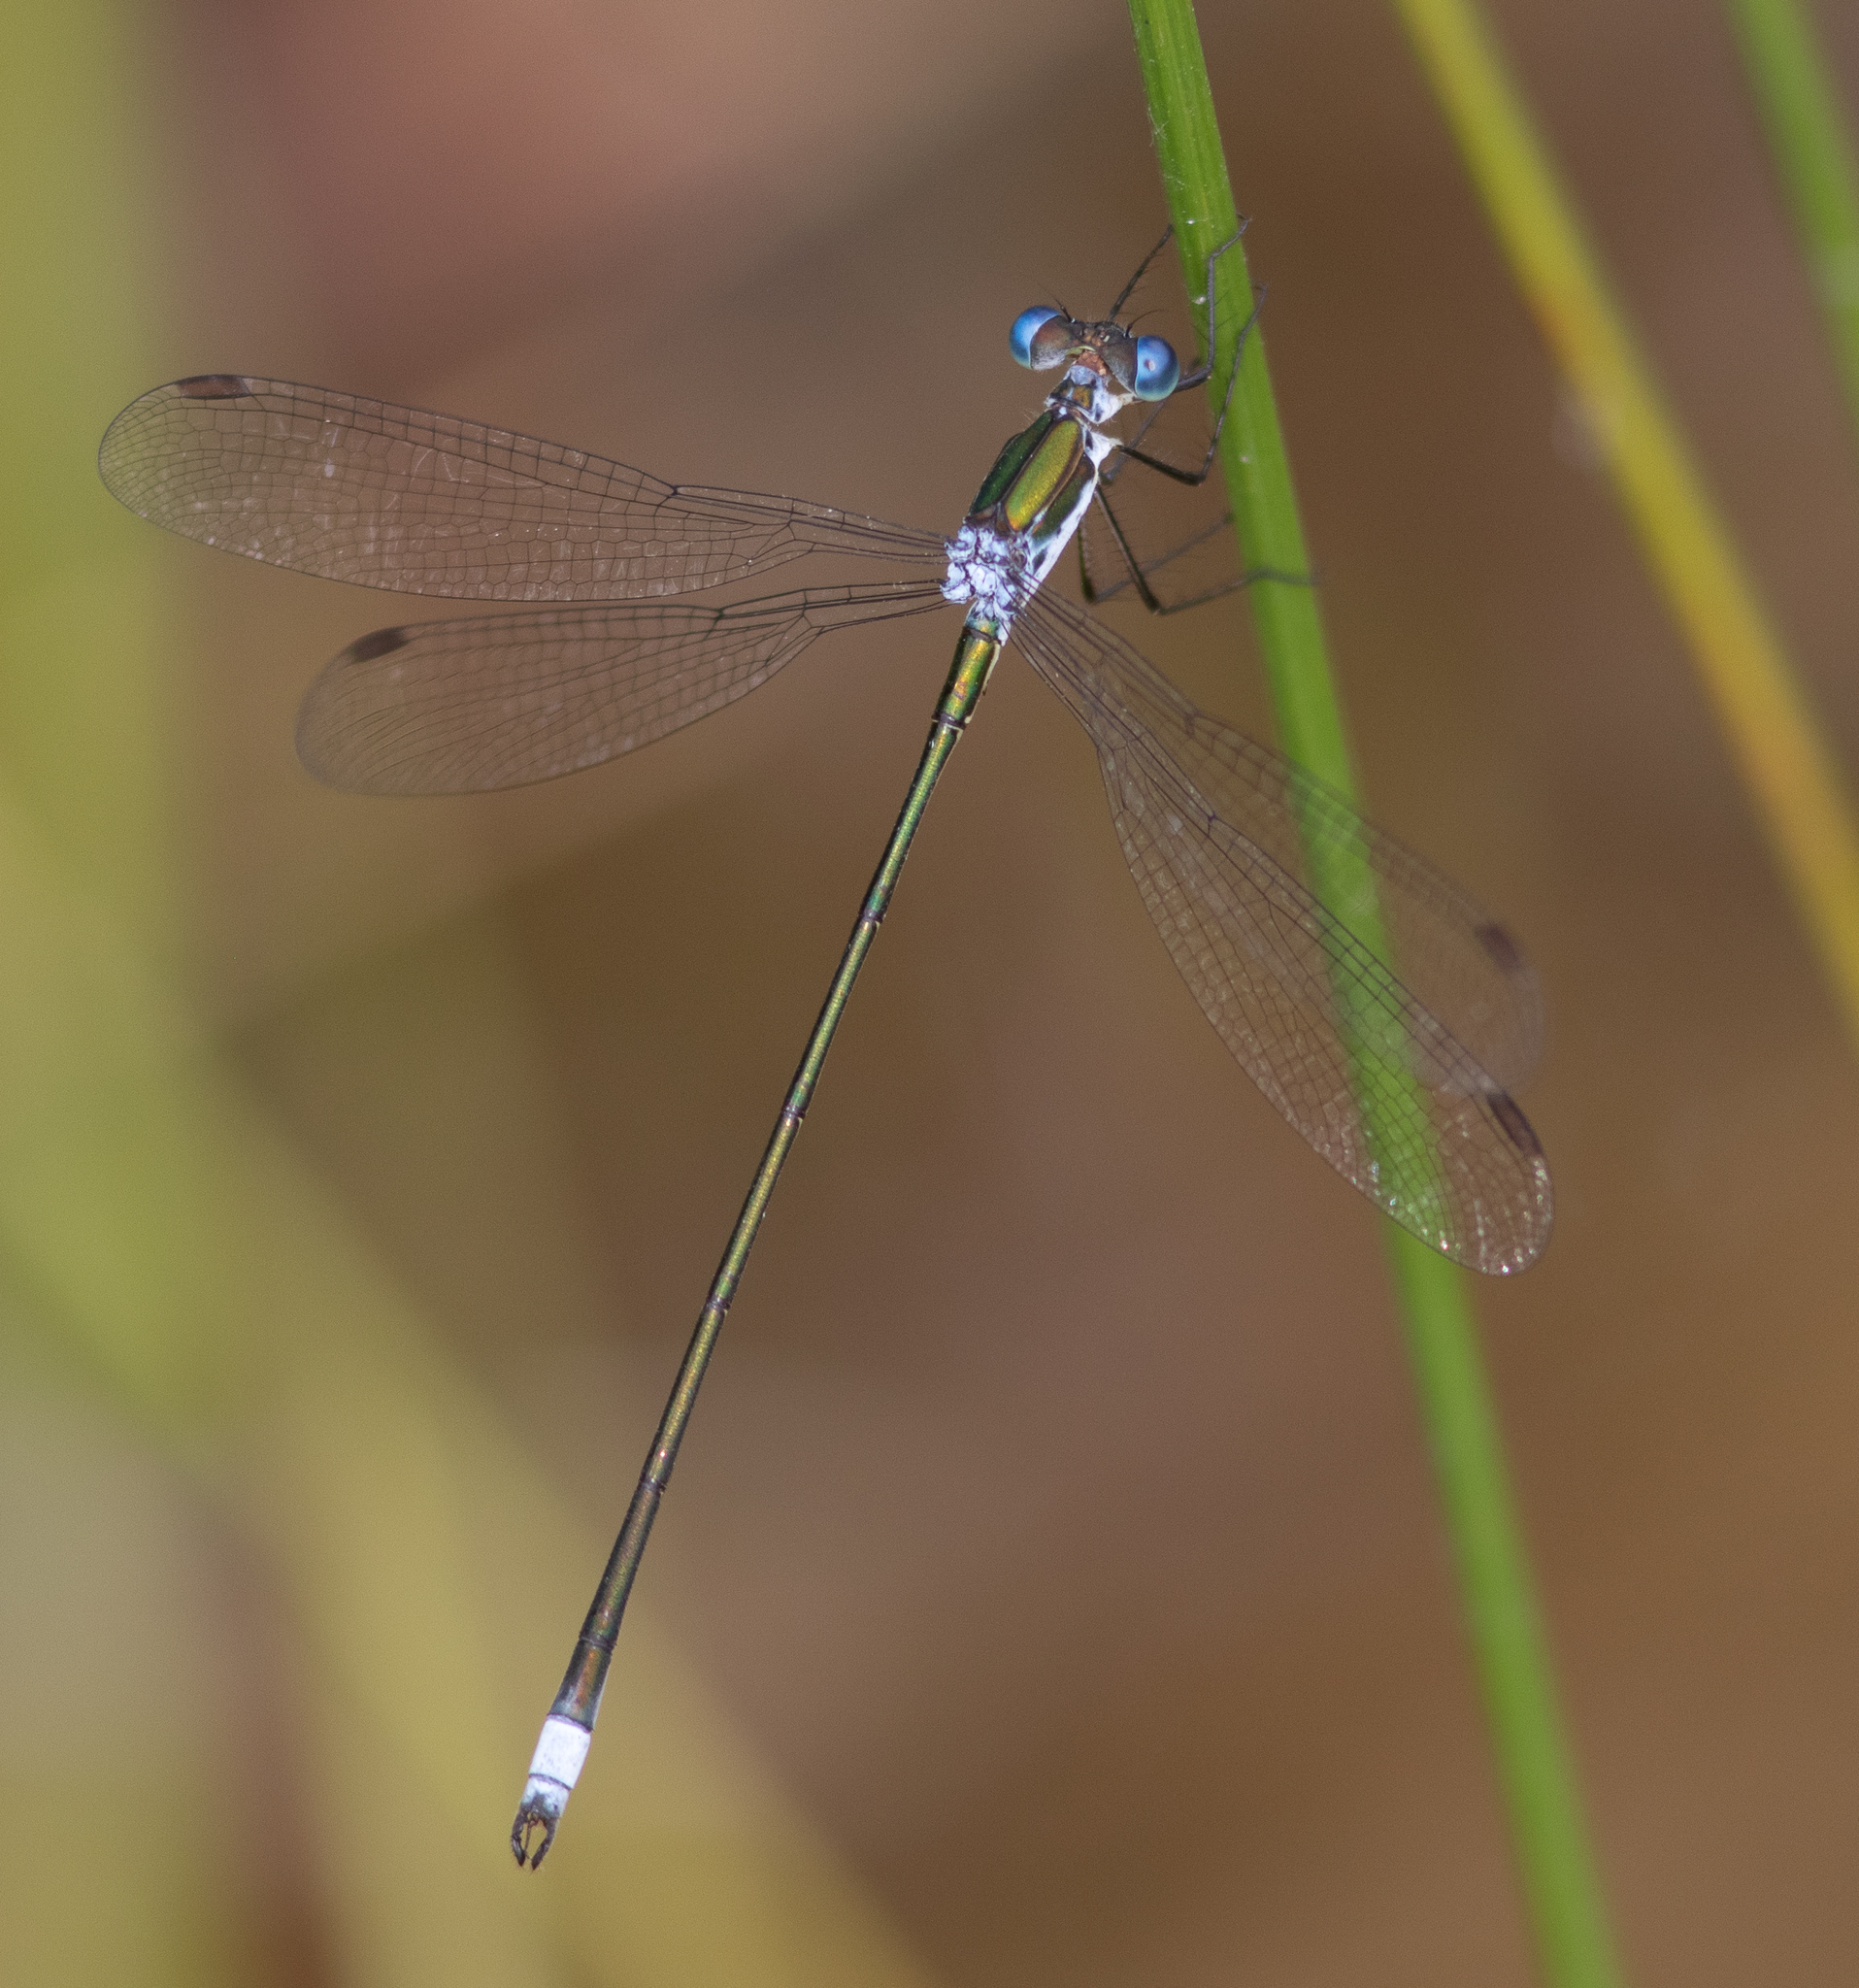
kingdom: Animalia
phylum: Arthropoda
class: Insecta
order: Odonata
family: Lestidae
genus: Lestes
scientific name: Lestes vigilax
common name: Swamp spreadwing
